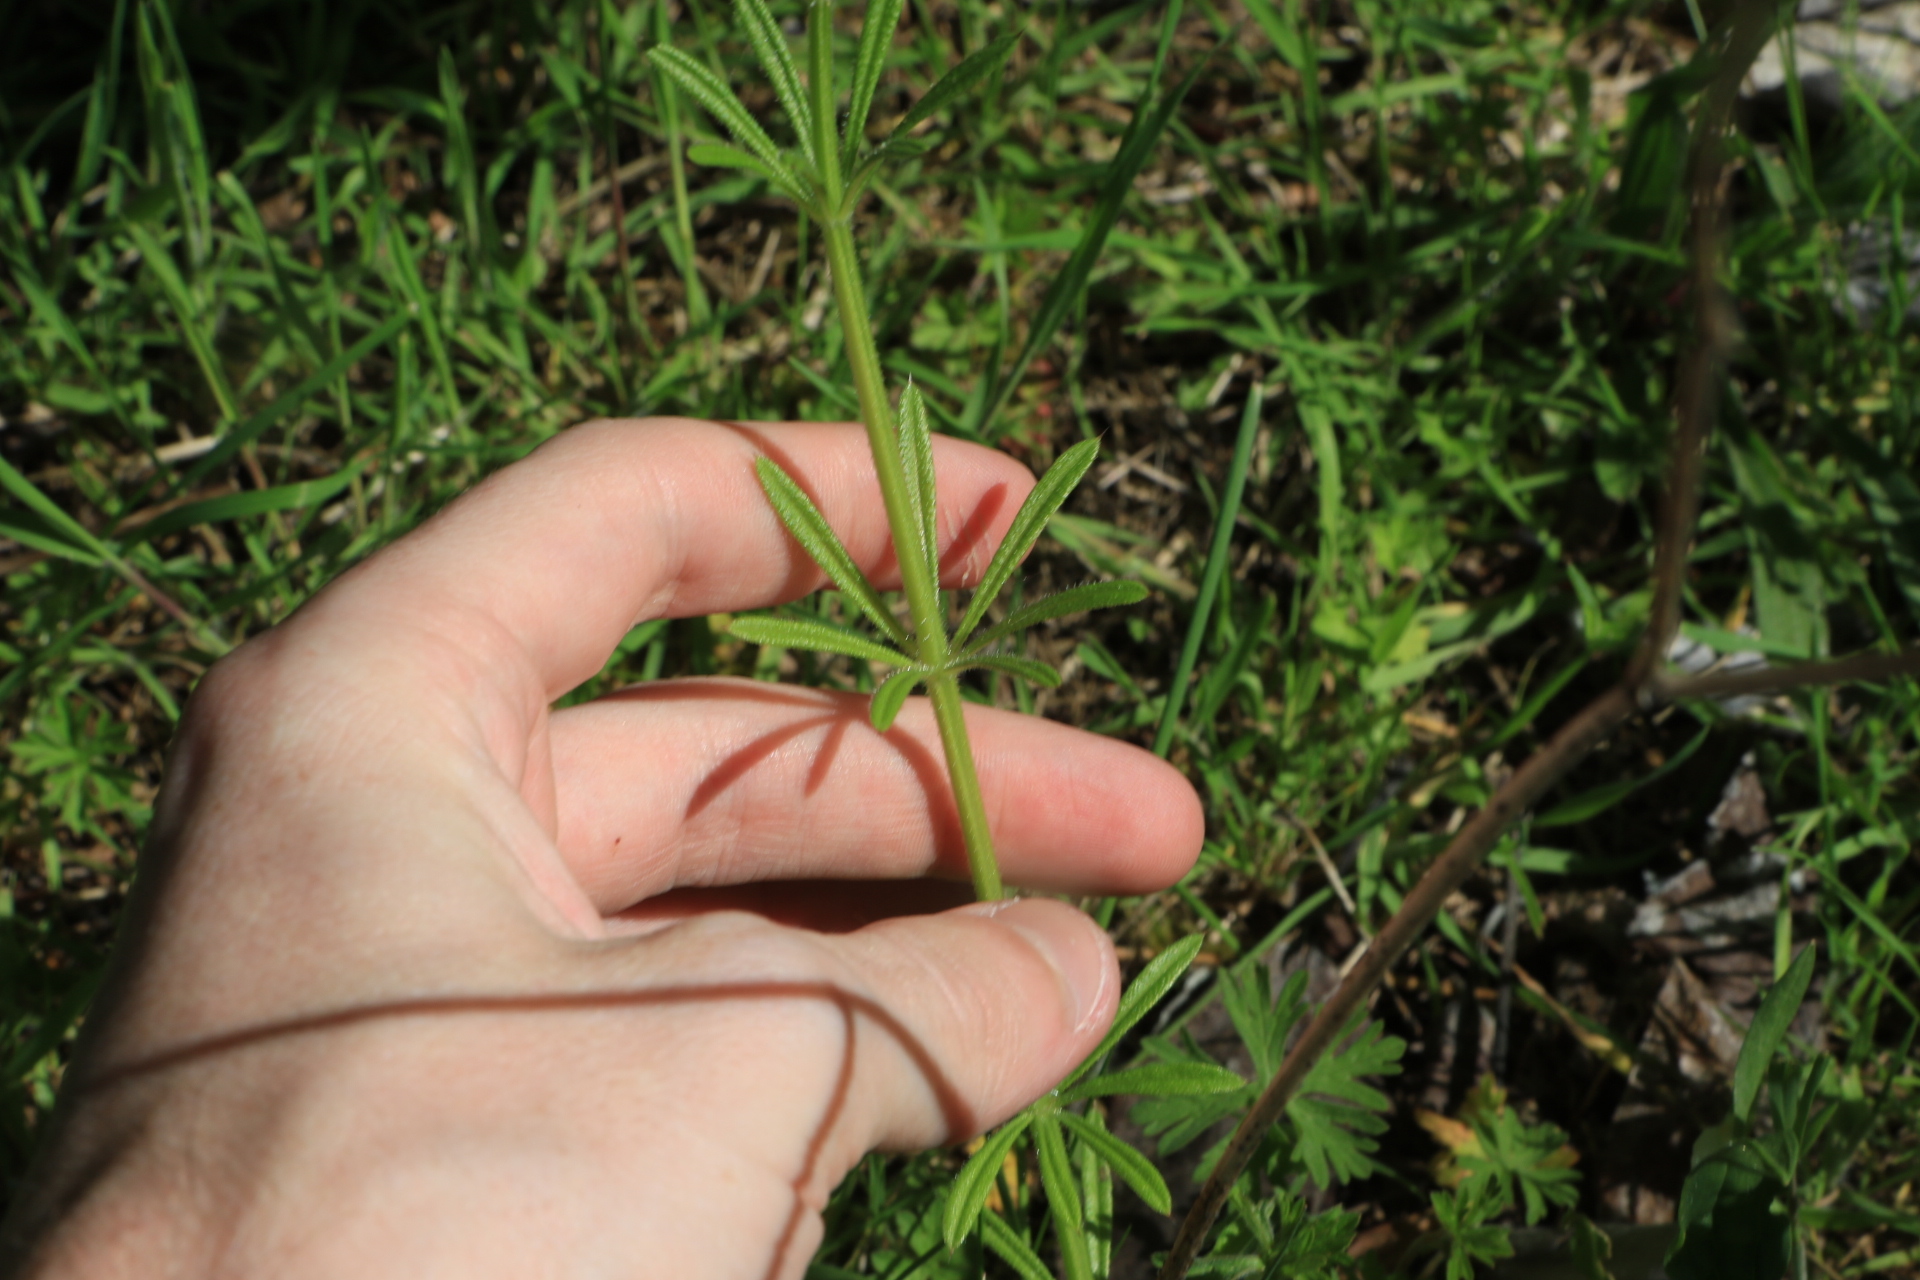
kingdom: Plantae
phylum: Tracheophyta
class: Magnoliopsida
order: Gentianales
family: Rubiaceae
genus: Galium
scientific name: Galium aparine
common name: Cleavers
